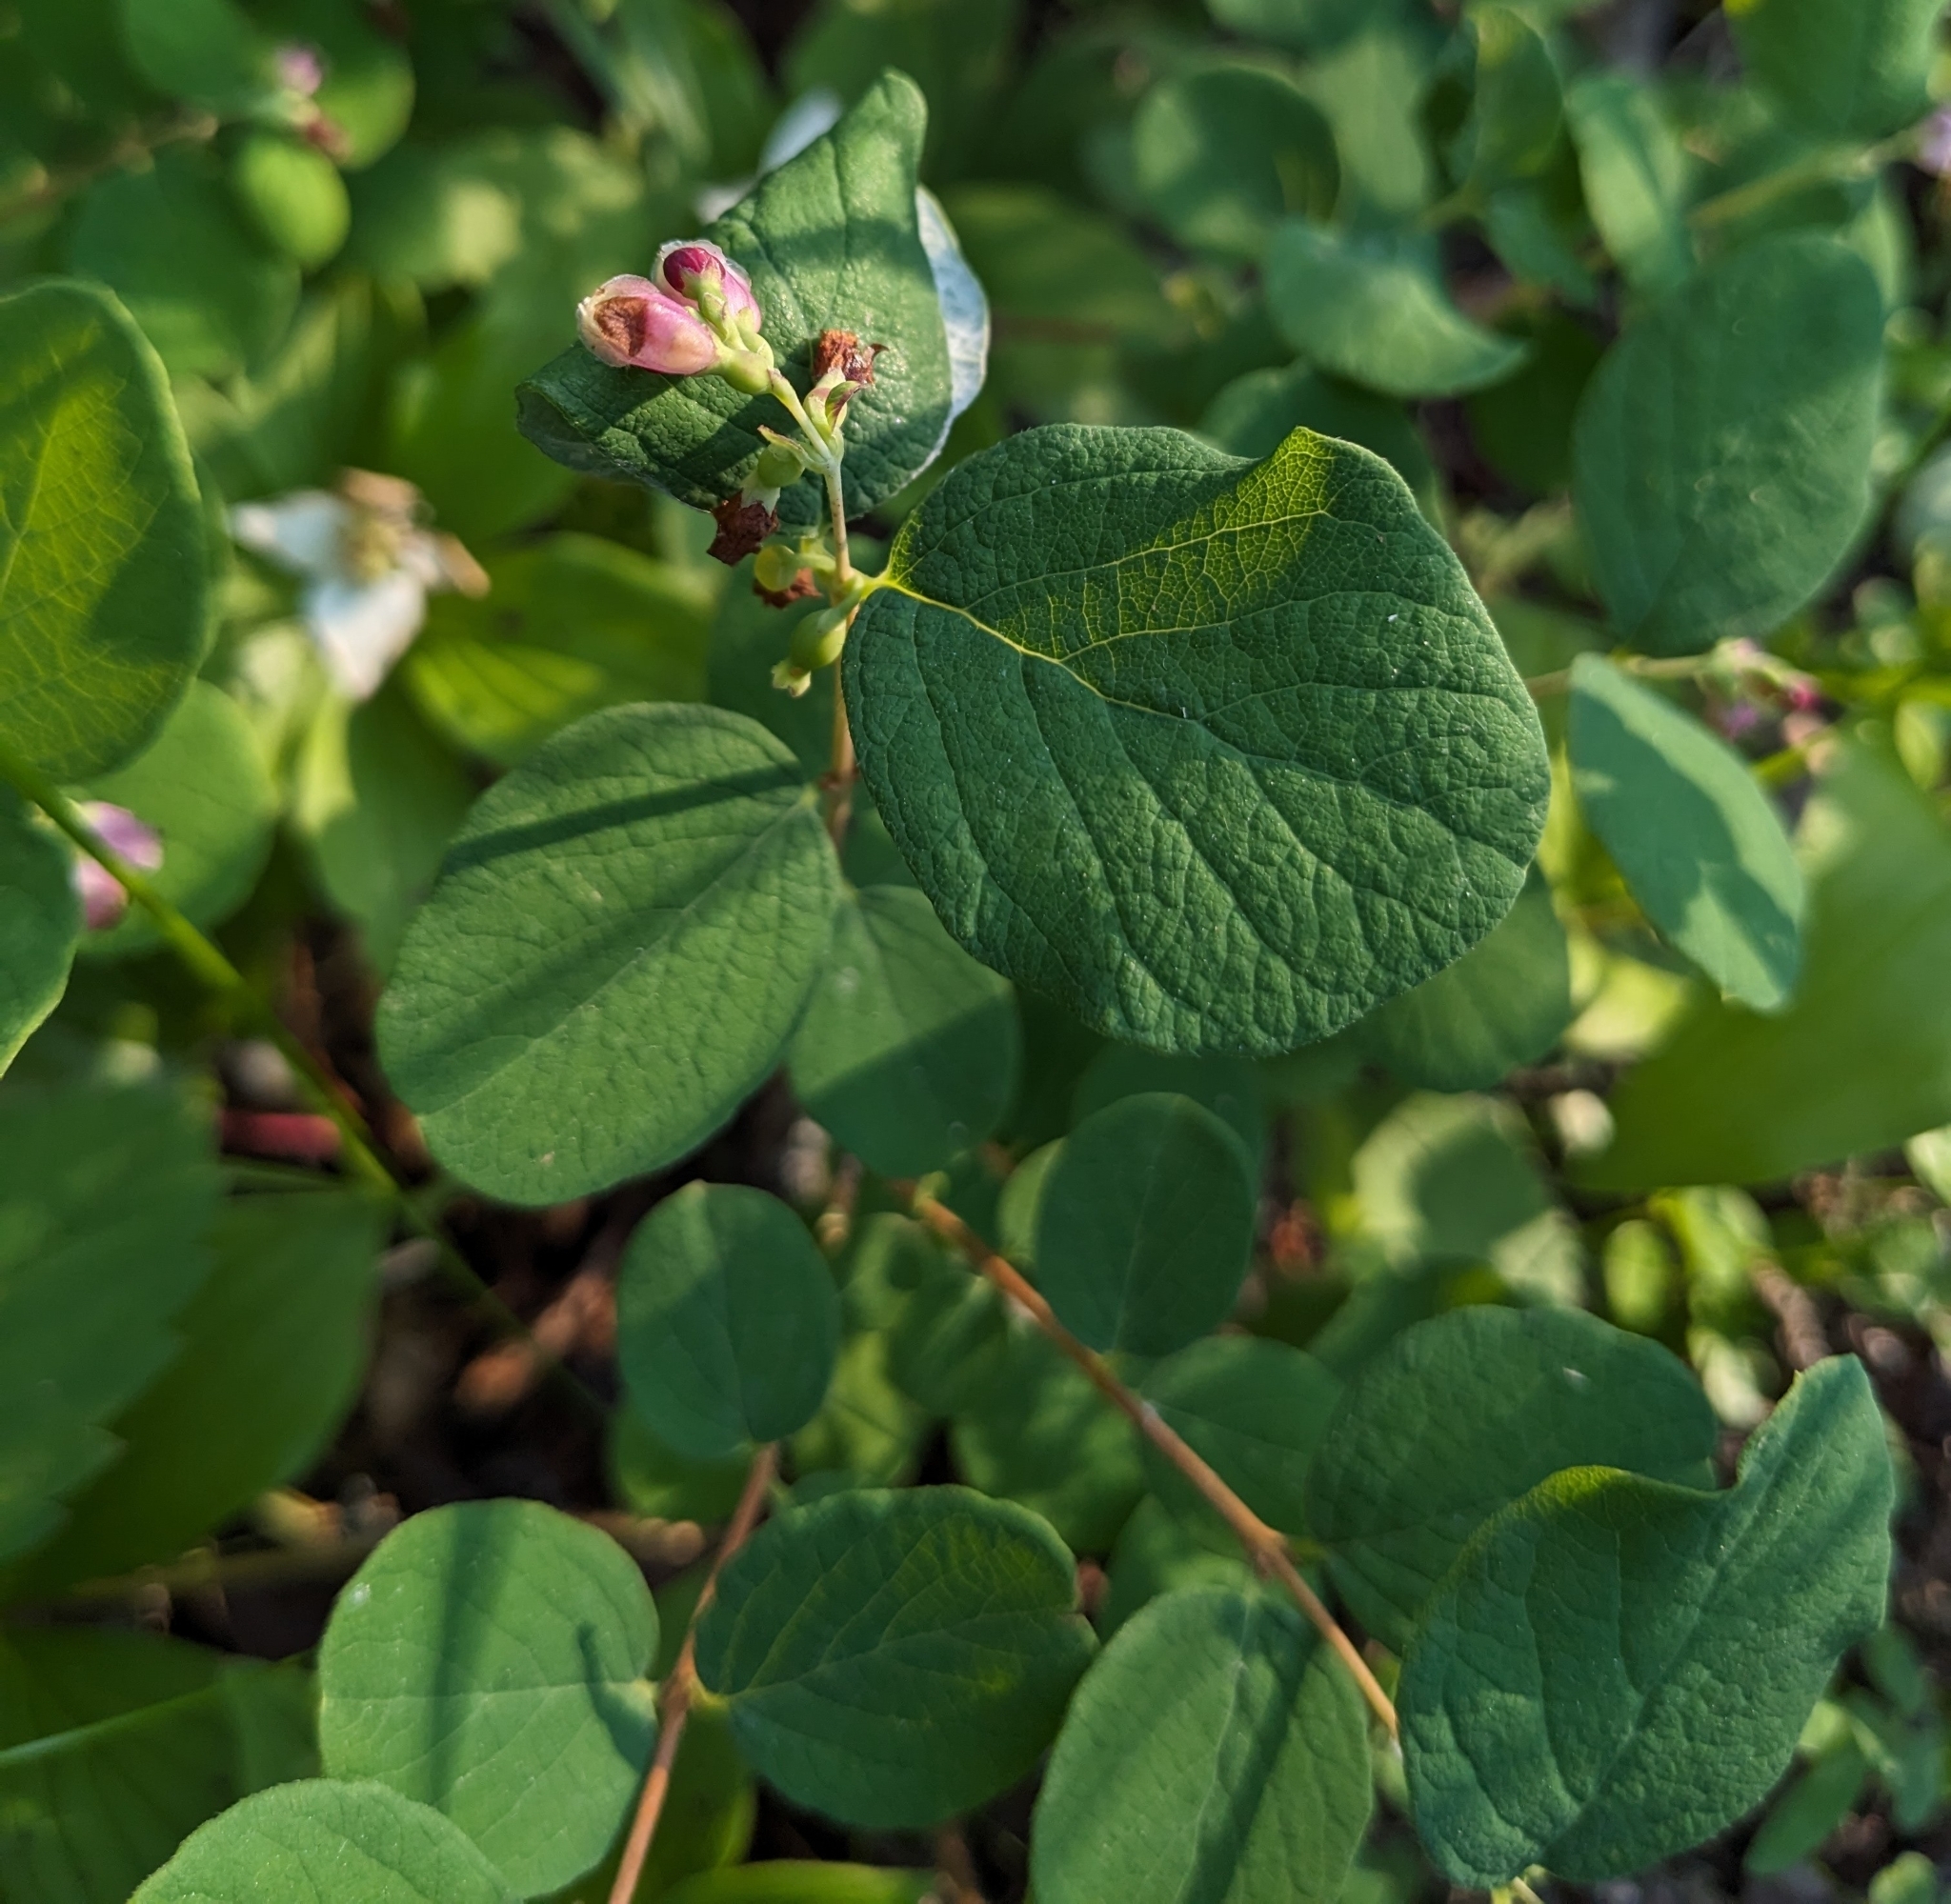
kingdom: Plantae
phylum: Tracheophyta
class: Magnoliopsida
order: Dipsacales
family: Caprifoliaceae
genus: Symphoricarpos
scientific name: Symphoricarpos albus
